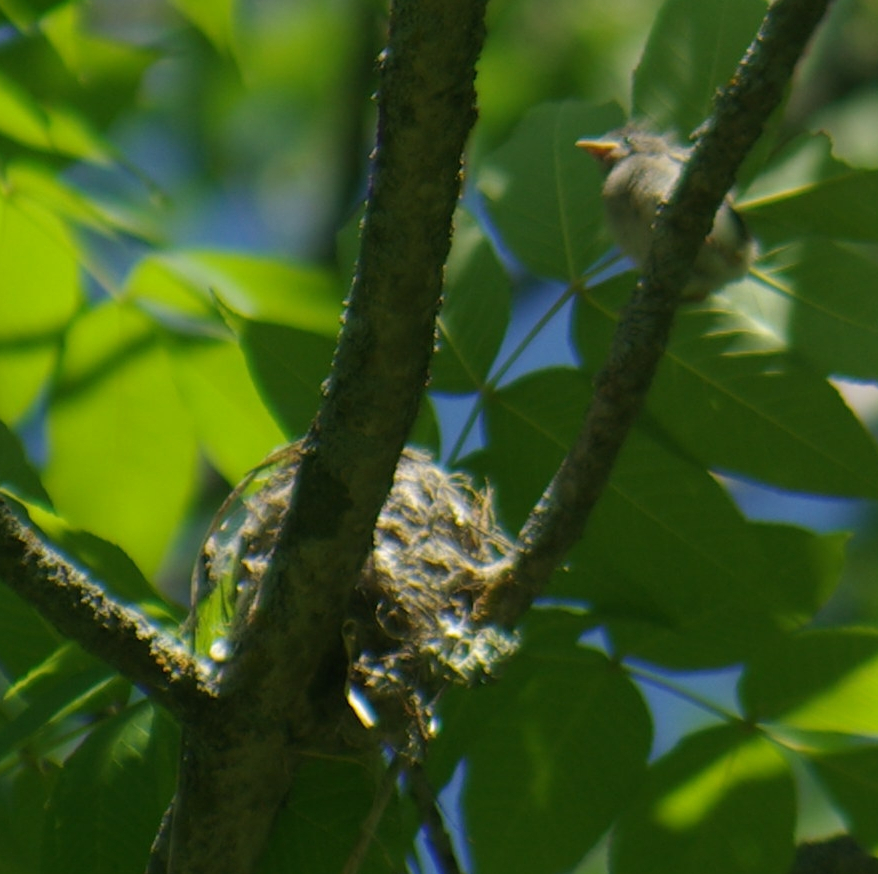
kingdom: Animalia
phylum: Chordata
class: Aves
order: Passeriformes
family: Parulidae
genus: Setophaga
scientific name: Setophaga ruticilla
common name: American redstart
